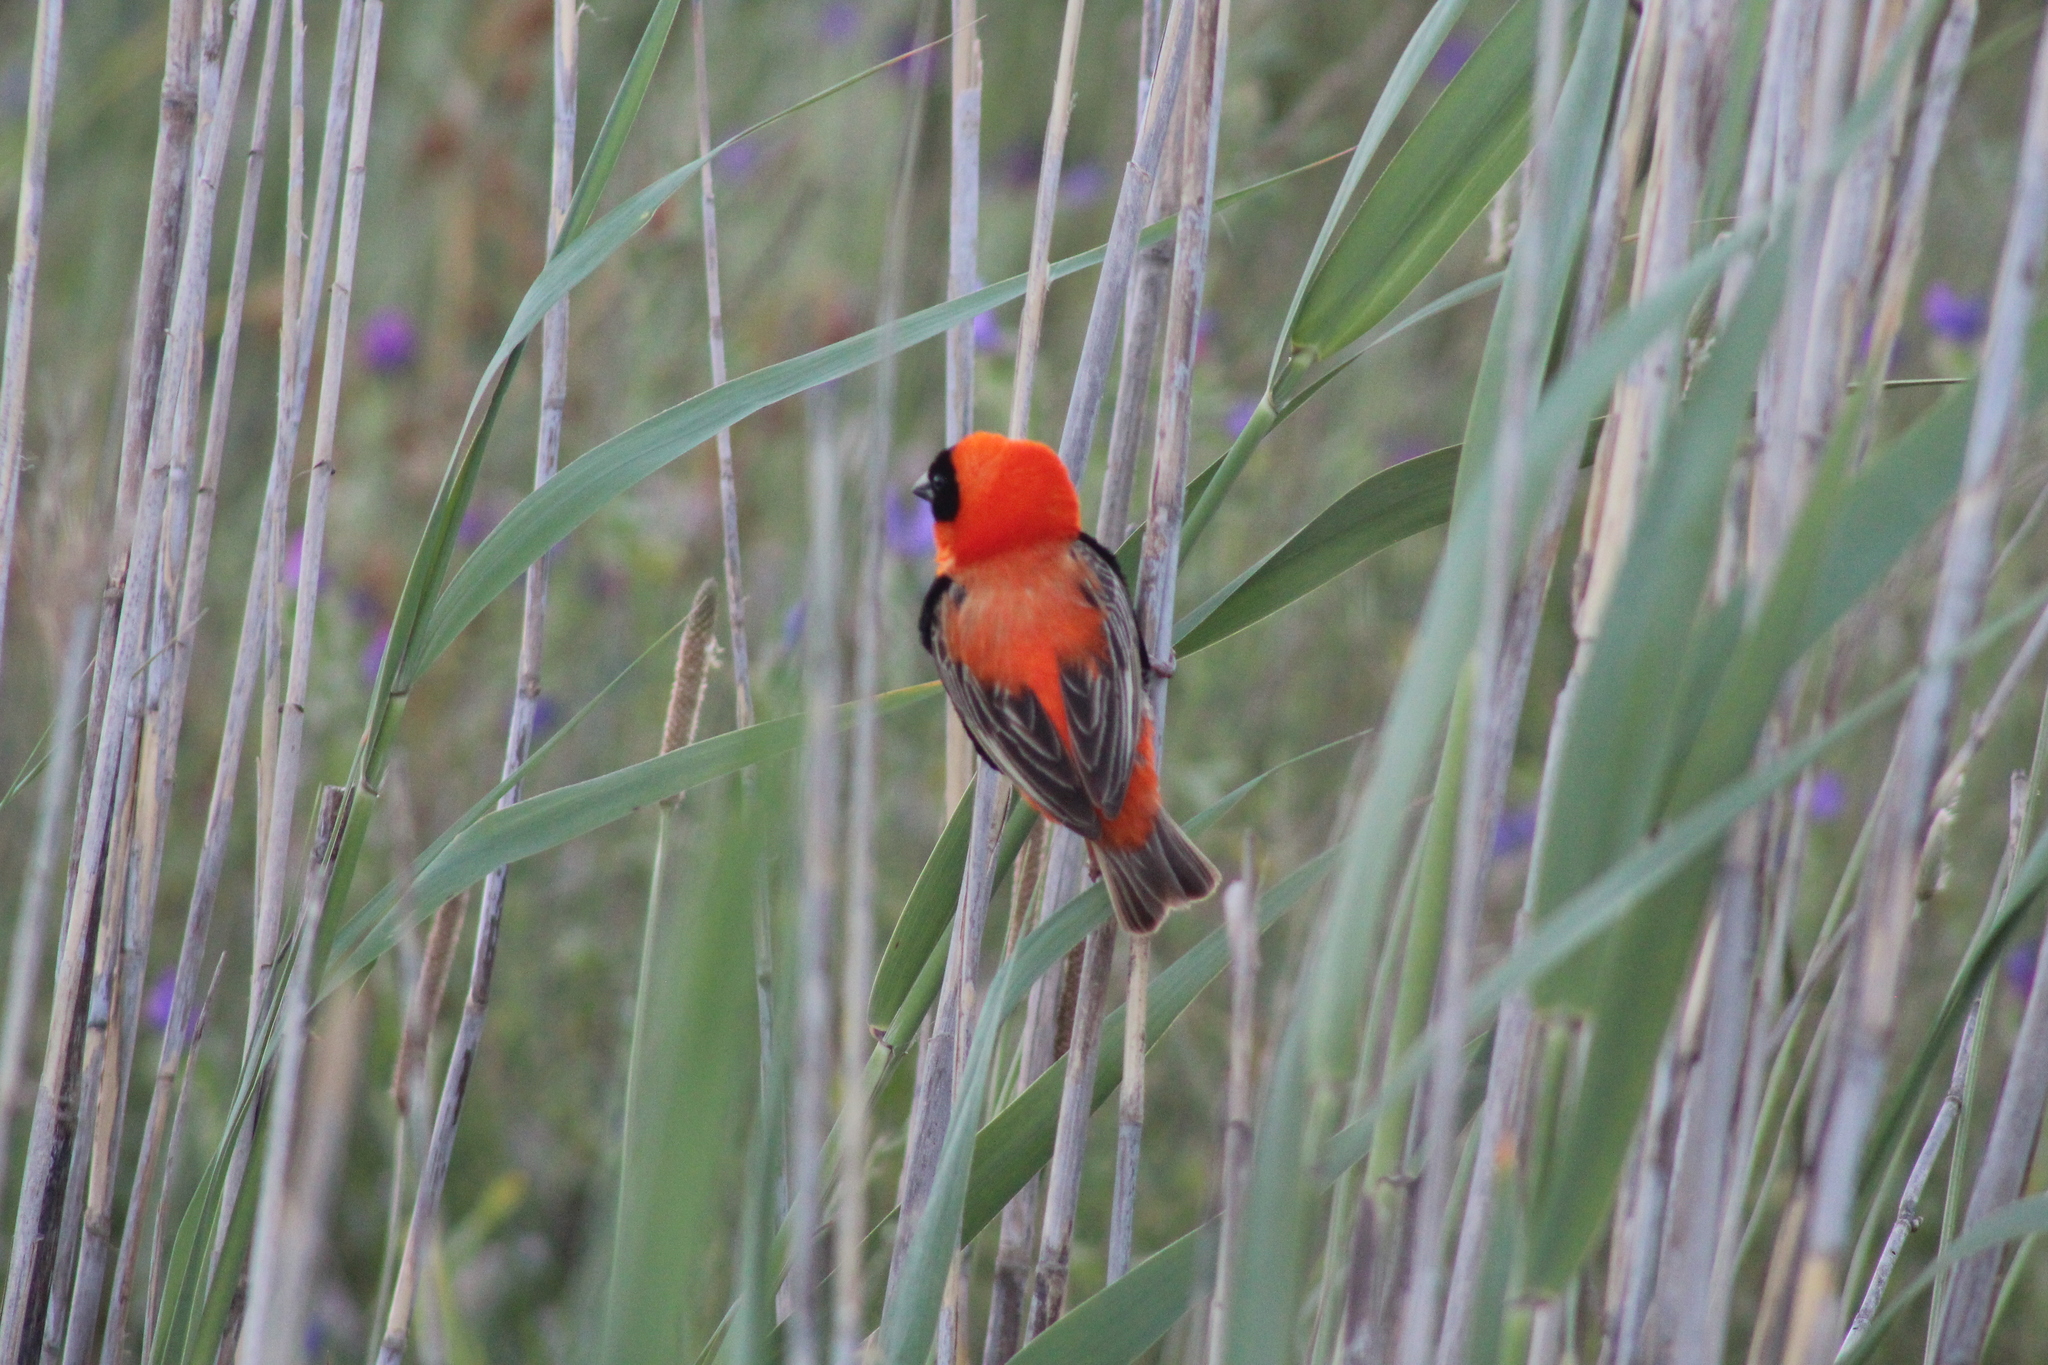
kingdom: Animalia
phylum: Chordata
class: Aves
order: Passeriformes
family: Ploceidae
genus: Euplectes
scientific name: Euplectes orix
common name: Southern red bishop
